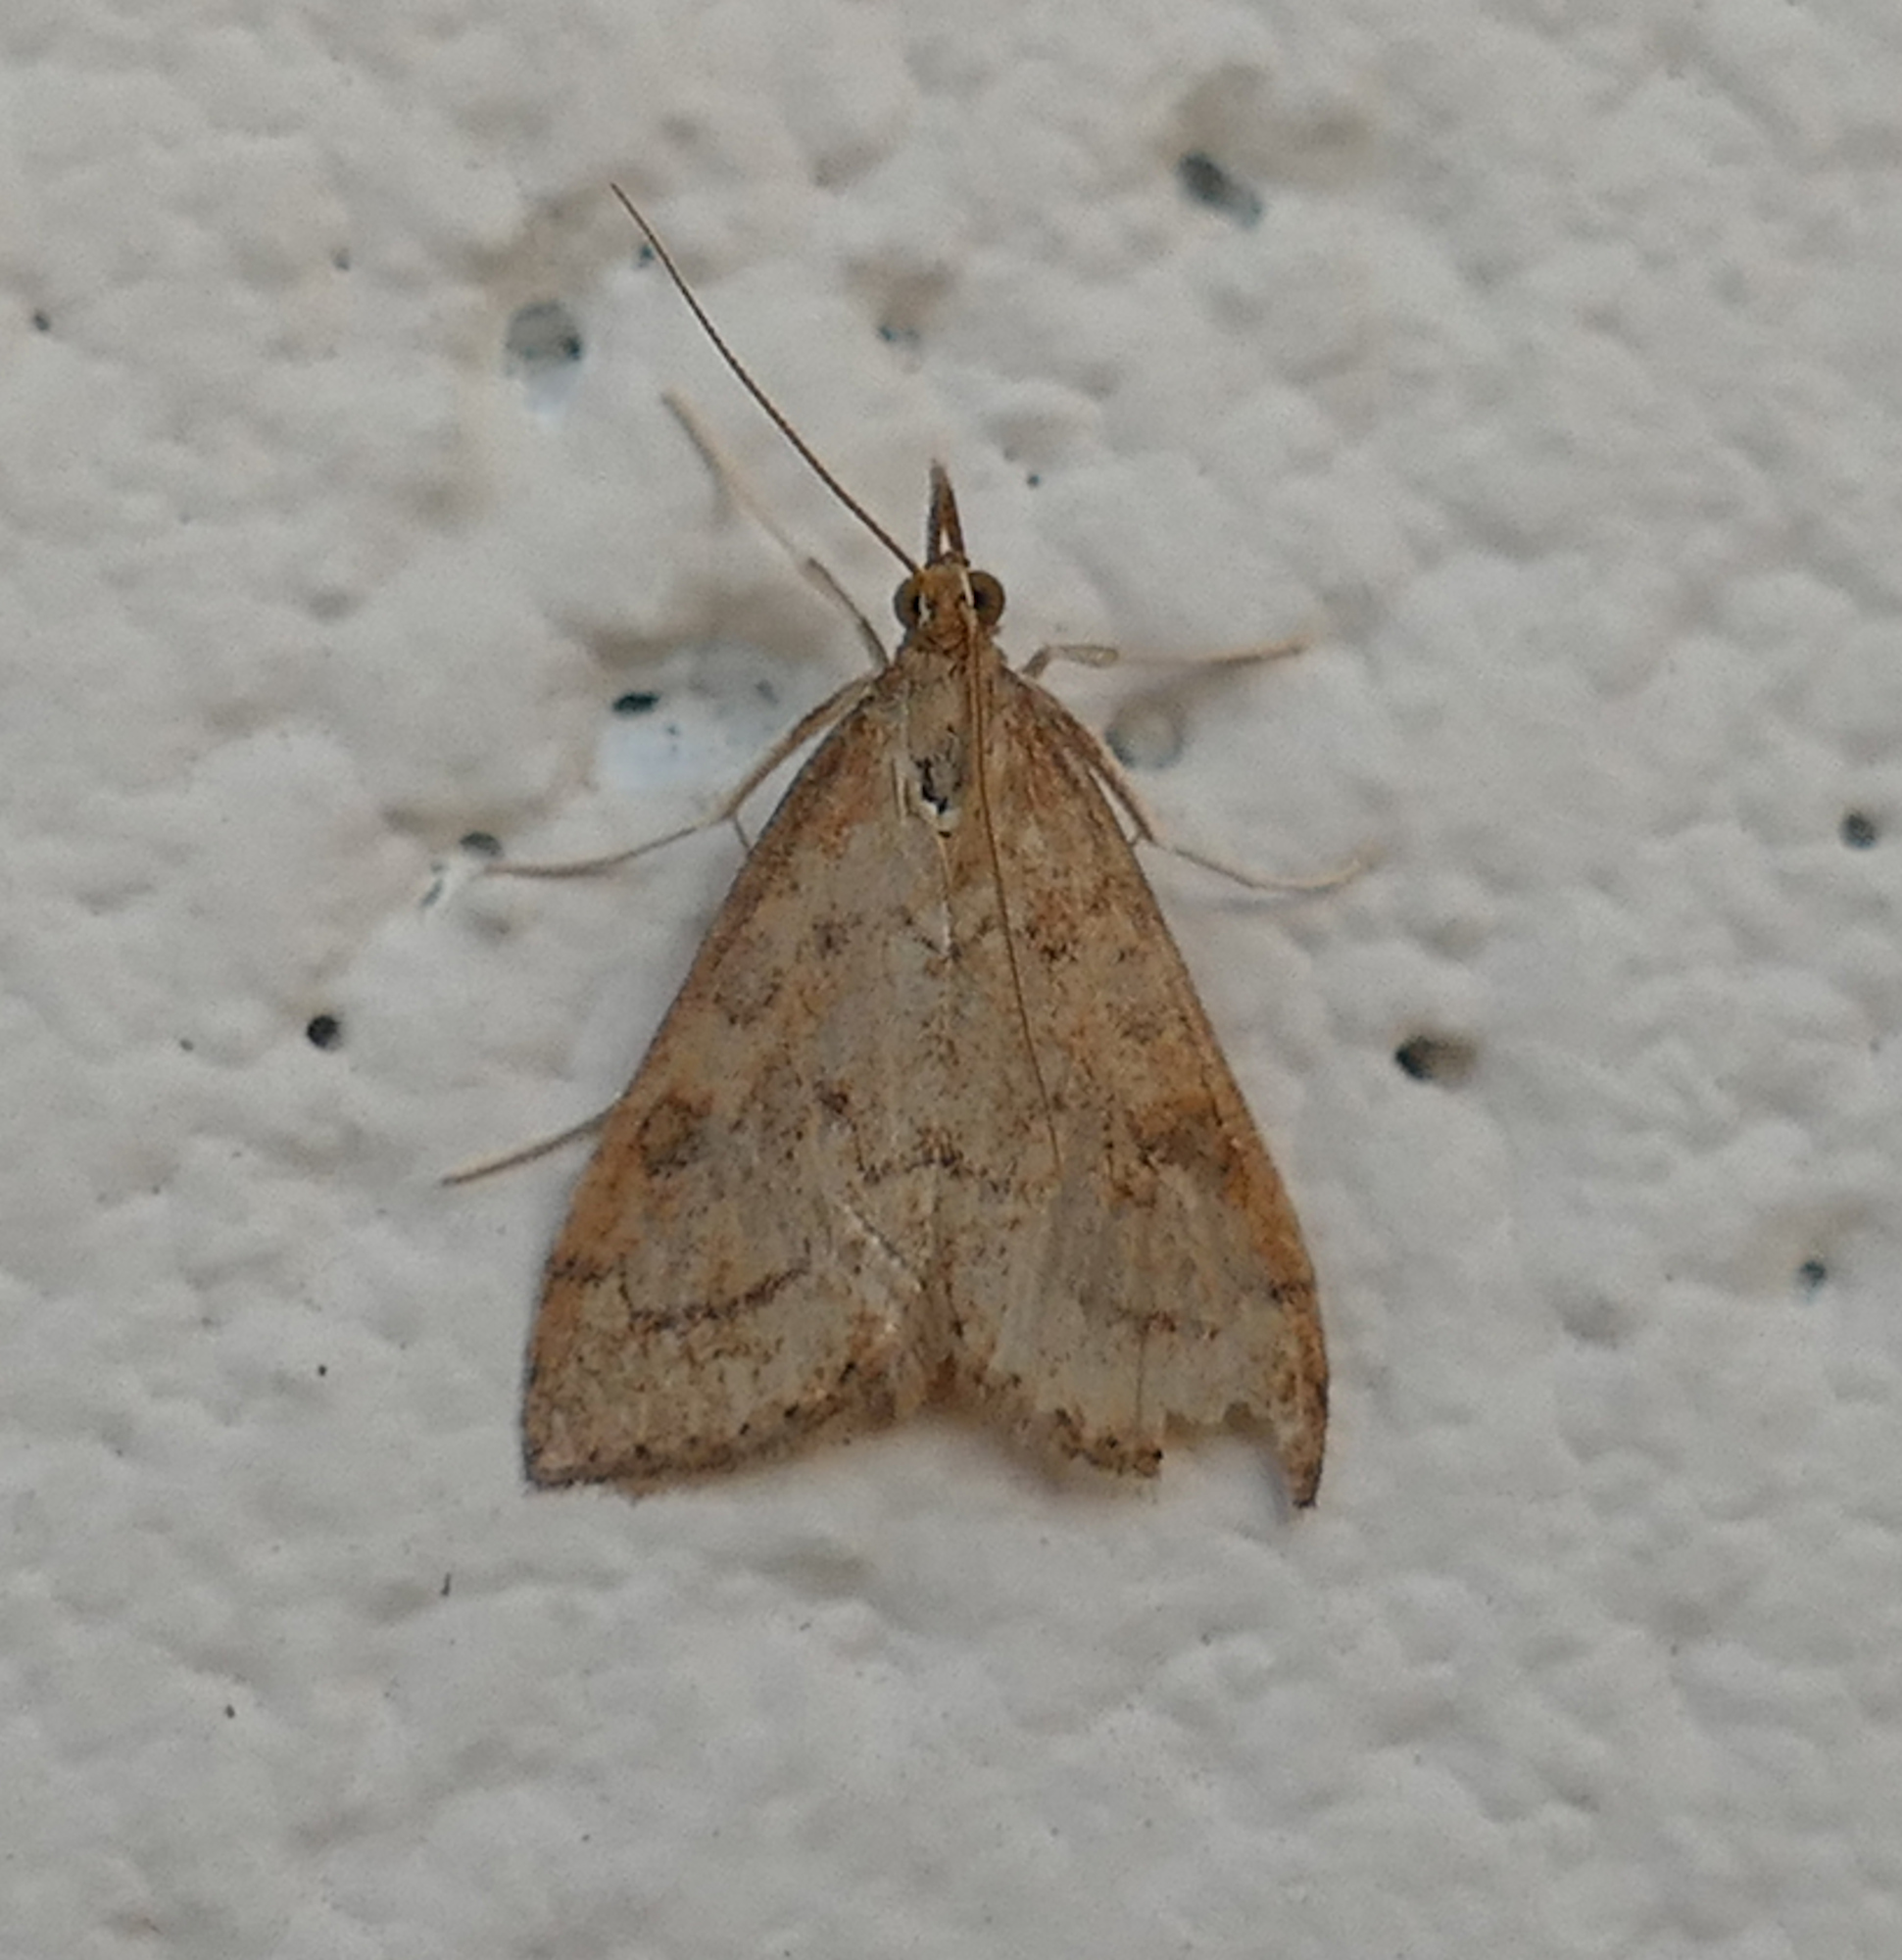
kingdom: Animalia
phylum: Arthropoda
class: Insecta
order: Lepidoptera
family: Crambidae
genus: Udea
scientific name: Udea rubigalis
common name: Celery leaftier moth
